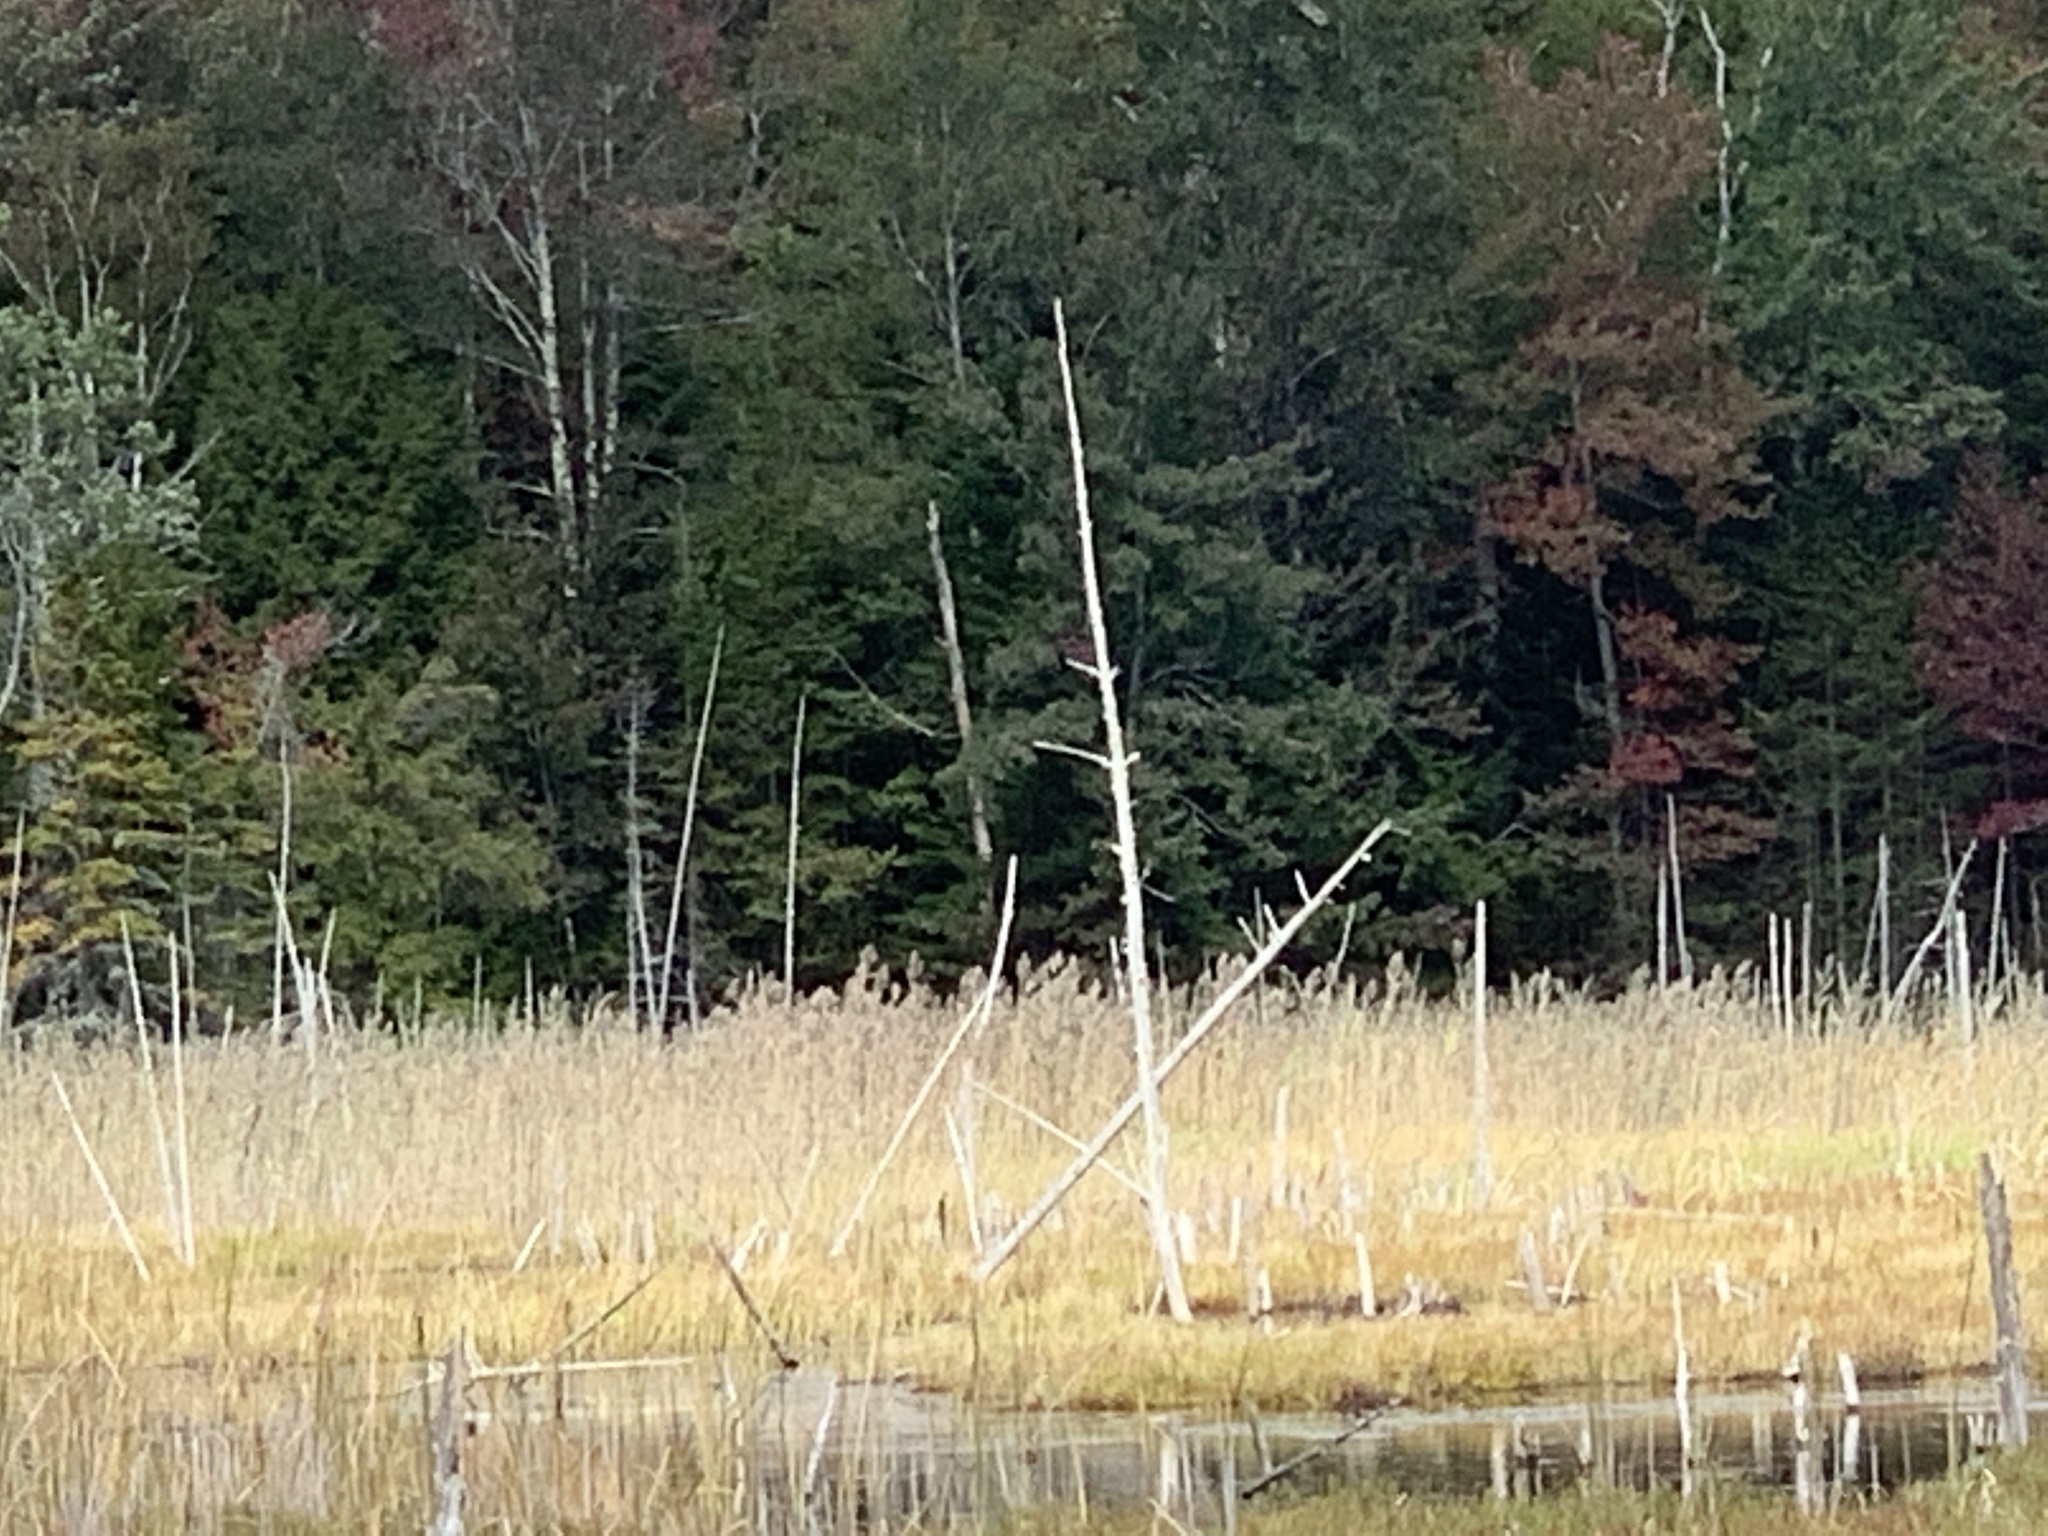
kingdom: Plantae
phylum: Tracheophyta
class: Liliopsida
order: Poales
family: Poaceae
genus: Phragmites
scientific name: Phragmites australis
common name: Common reed
